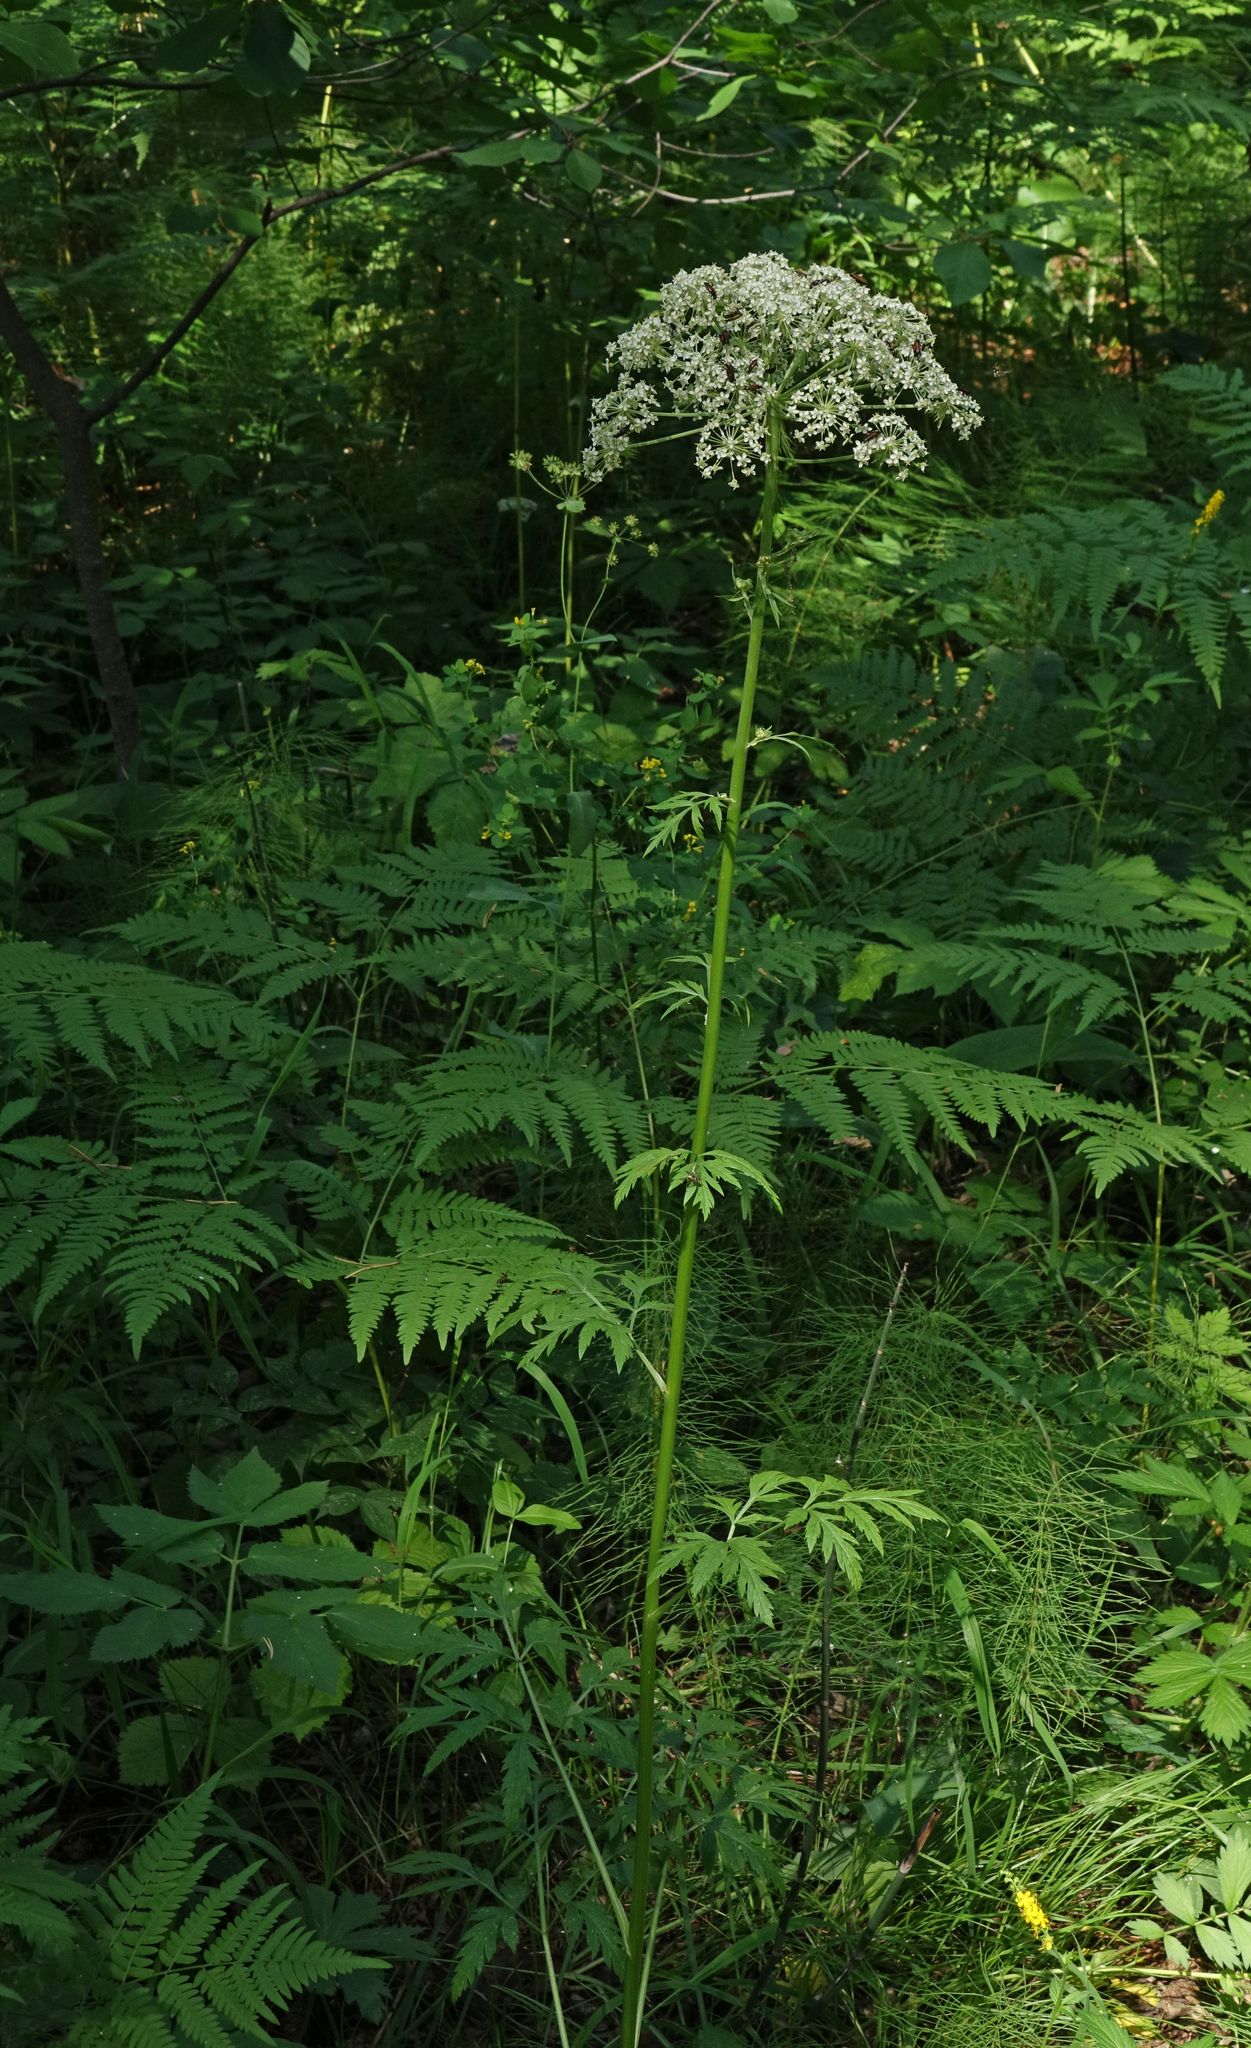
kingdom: Plantae
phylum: Tracheophyta
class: Magnoliopsida
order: Apiales
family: Apiaceae
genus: Pleurospermum
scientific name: Pleurospermum uralense
